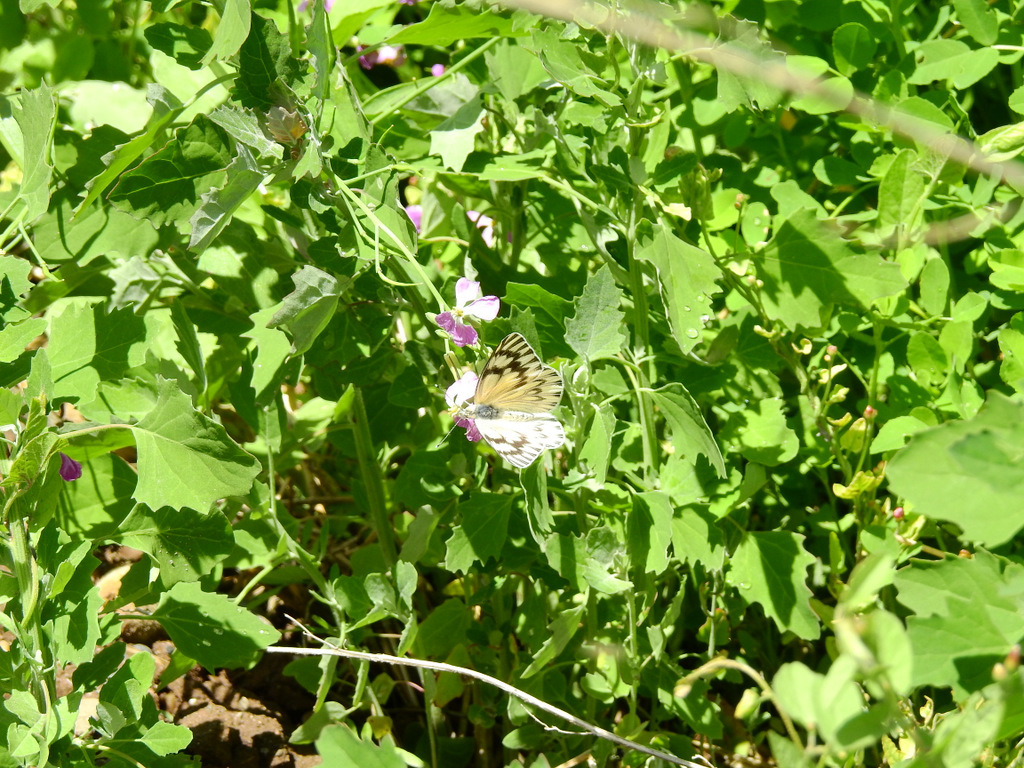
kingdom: Animalia
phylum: Arthropoda
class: Insecta
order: Lepidoptera
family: Pieridae
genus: Tatochila
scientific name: Tatochila mercedis
